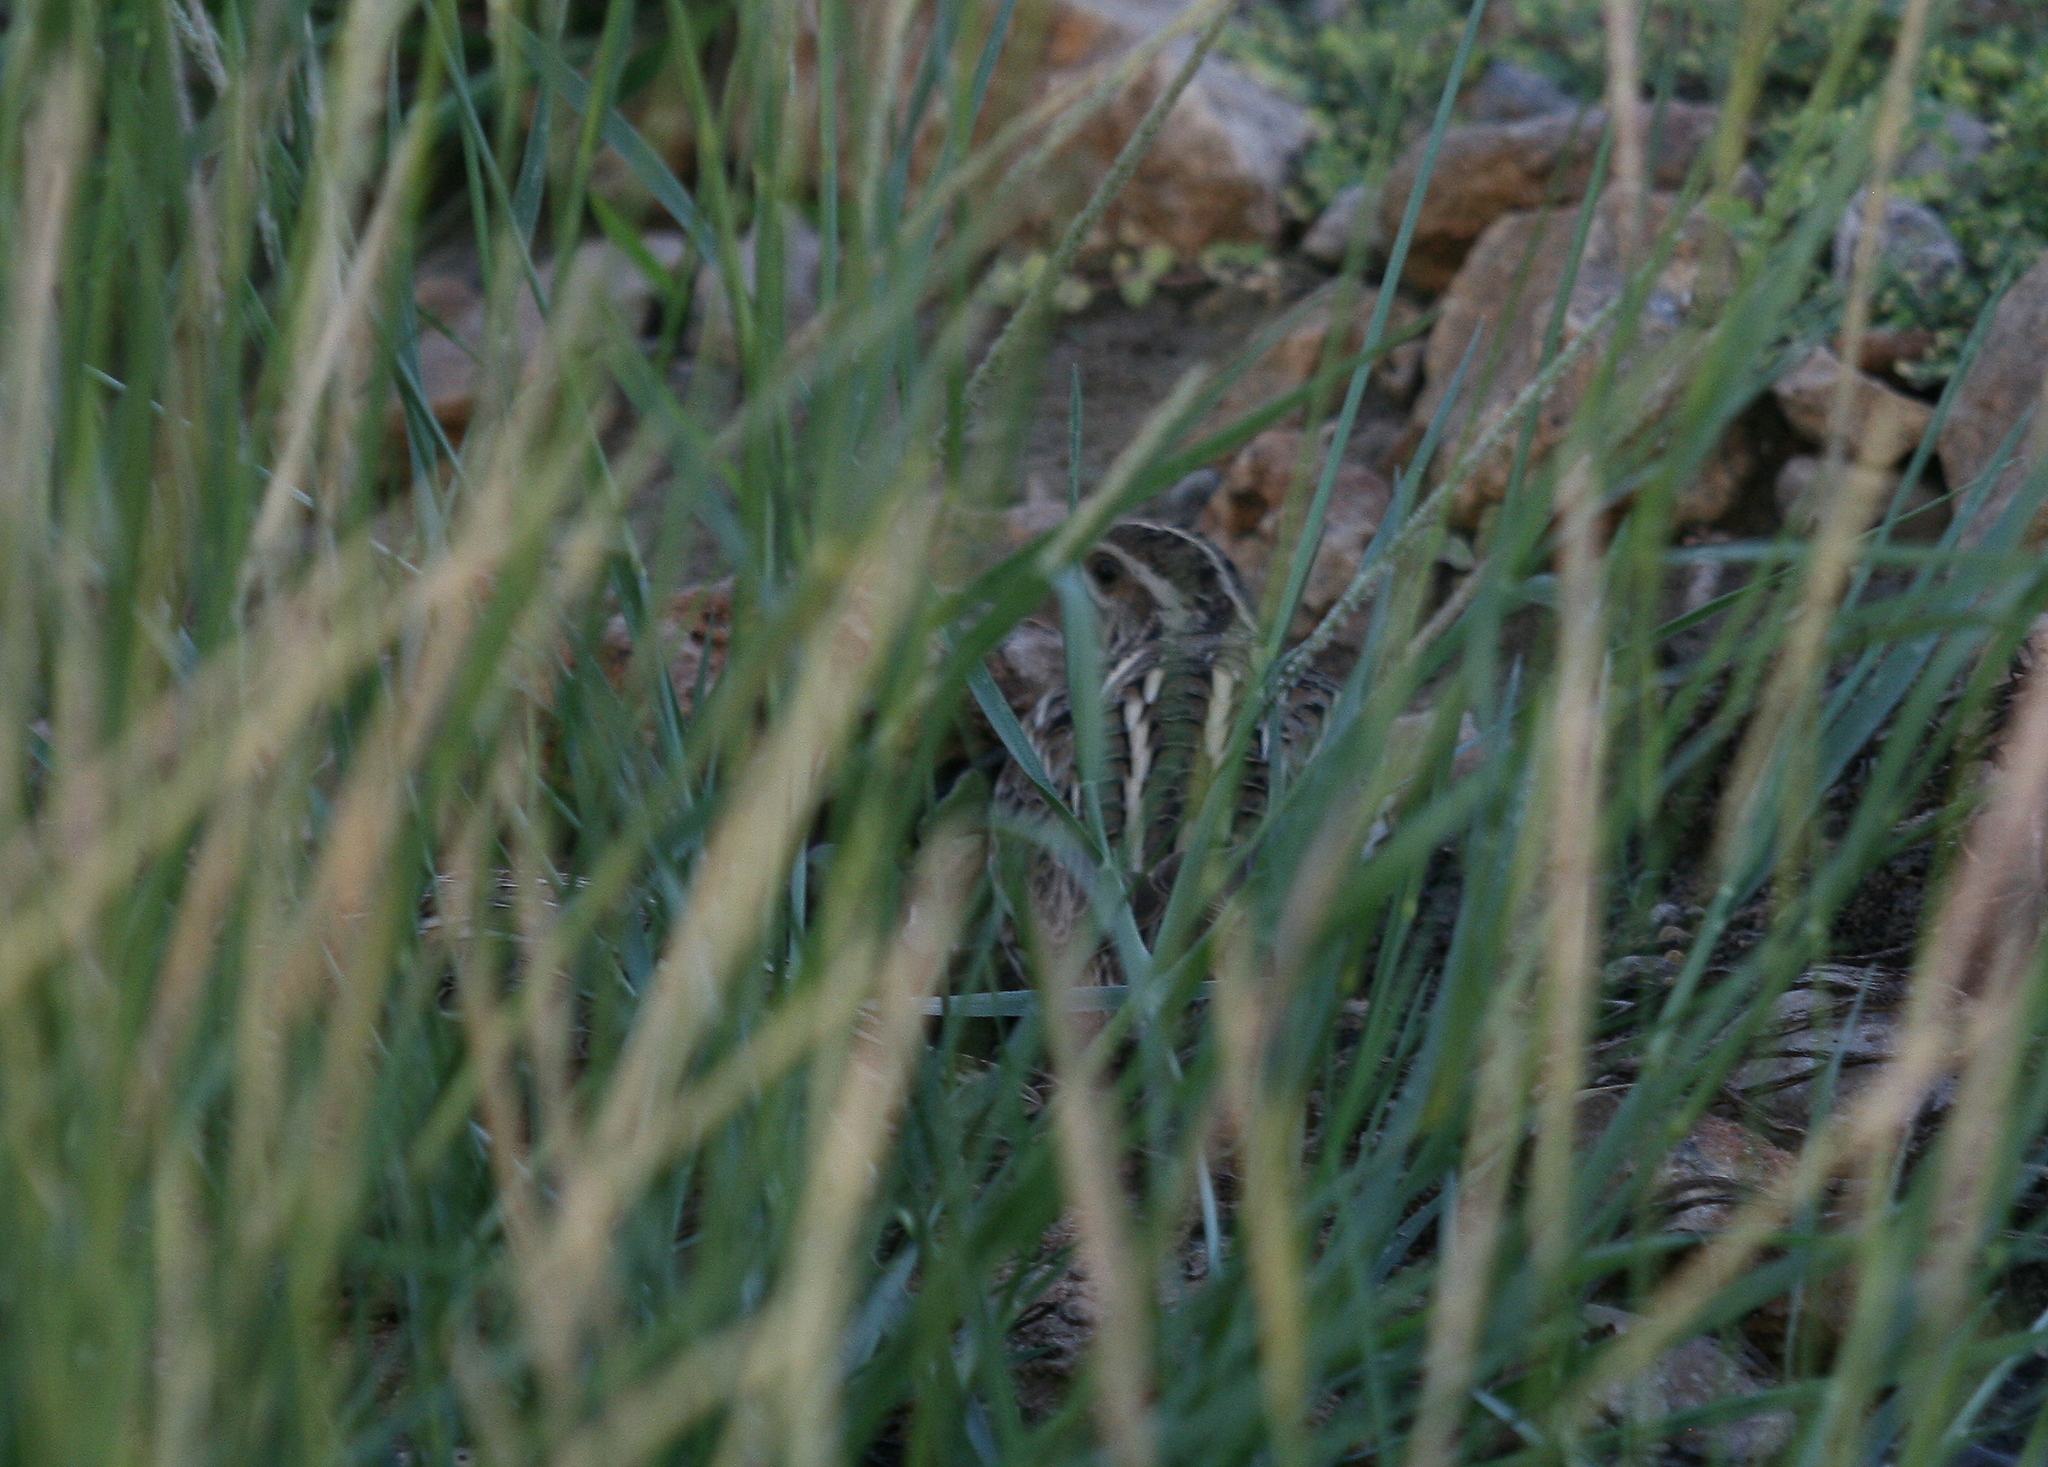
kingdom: Animalia
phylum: Chordata
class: Aves
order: Galliformes
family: Phasianidae
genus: Coturnix
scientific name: Coturnix coturnix
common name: Common quail
